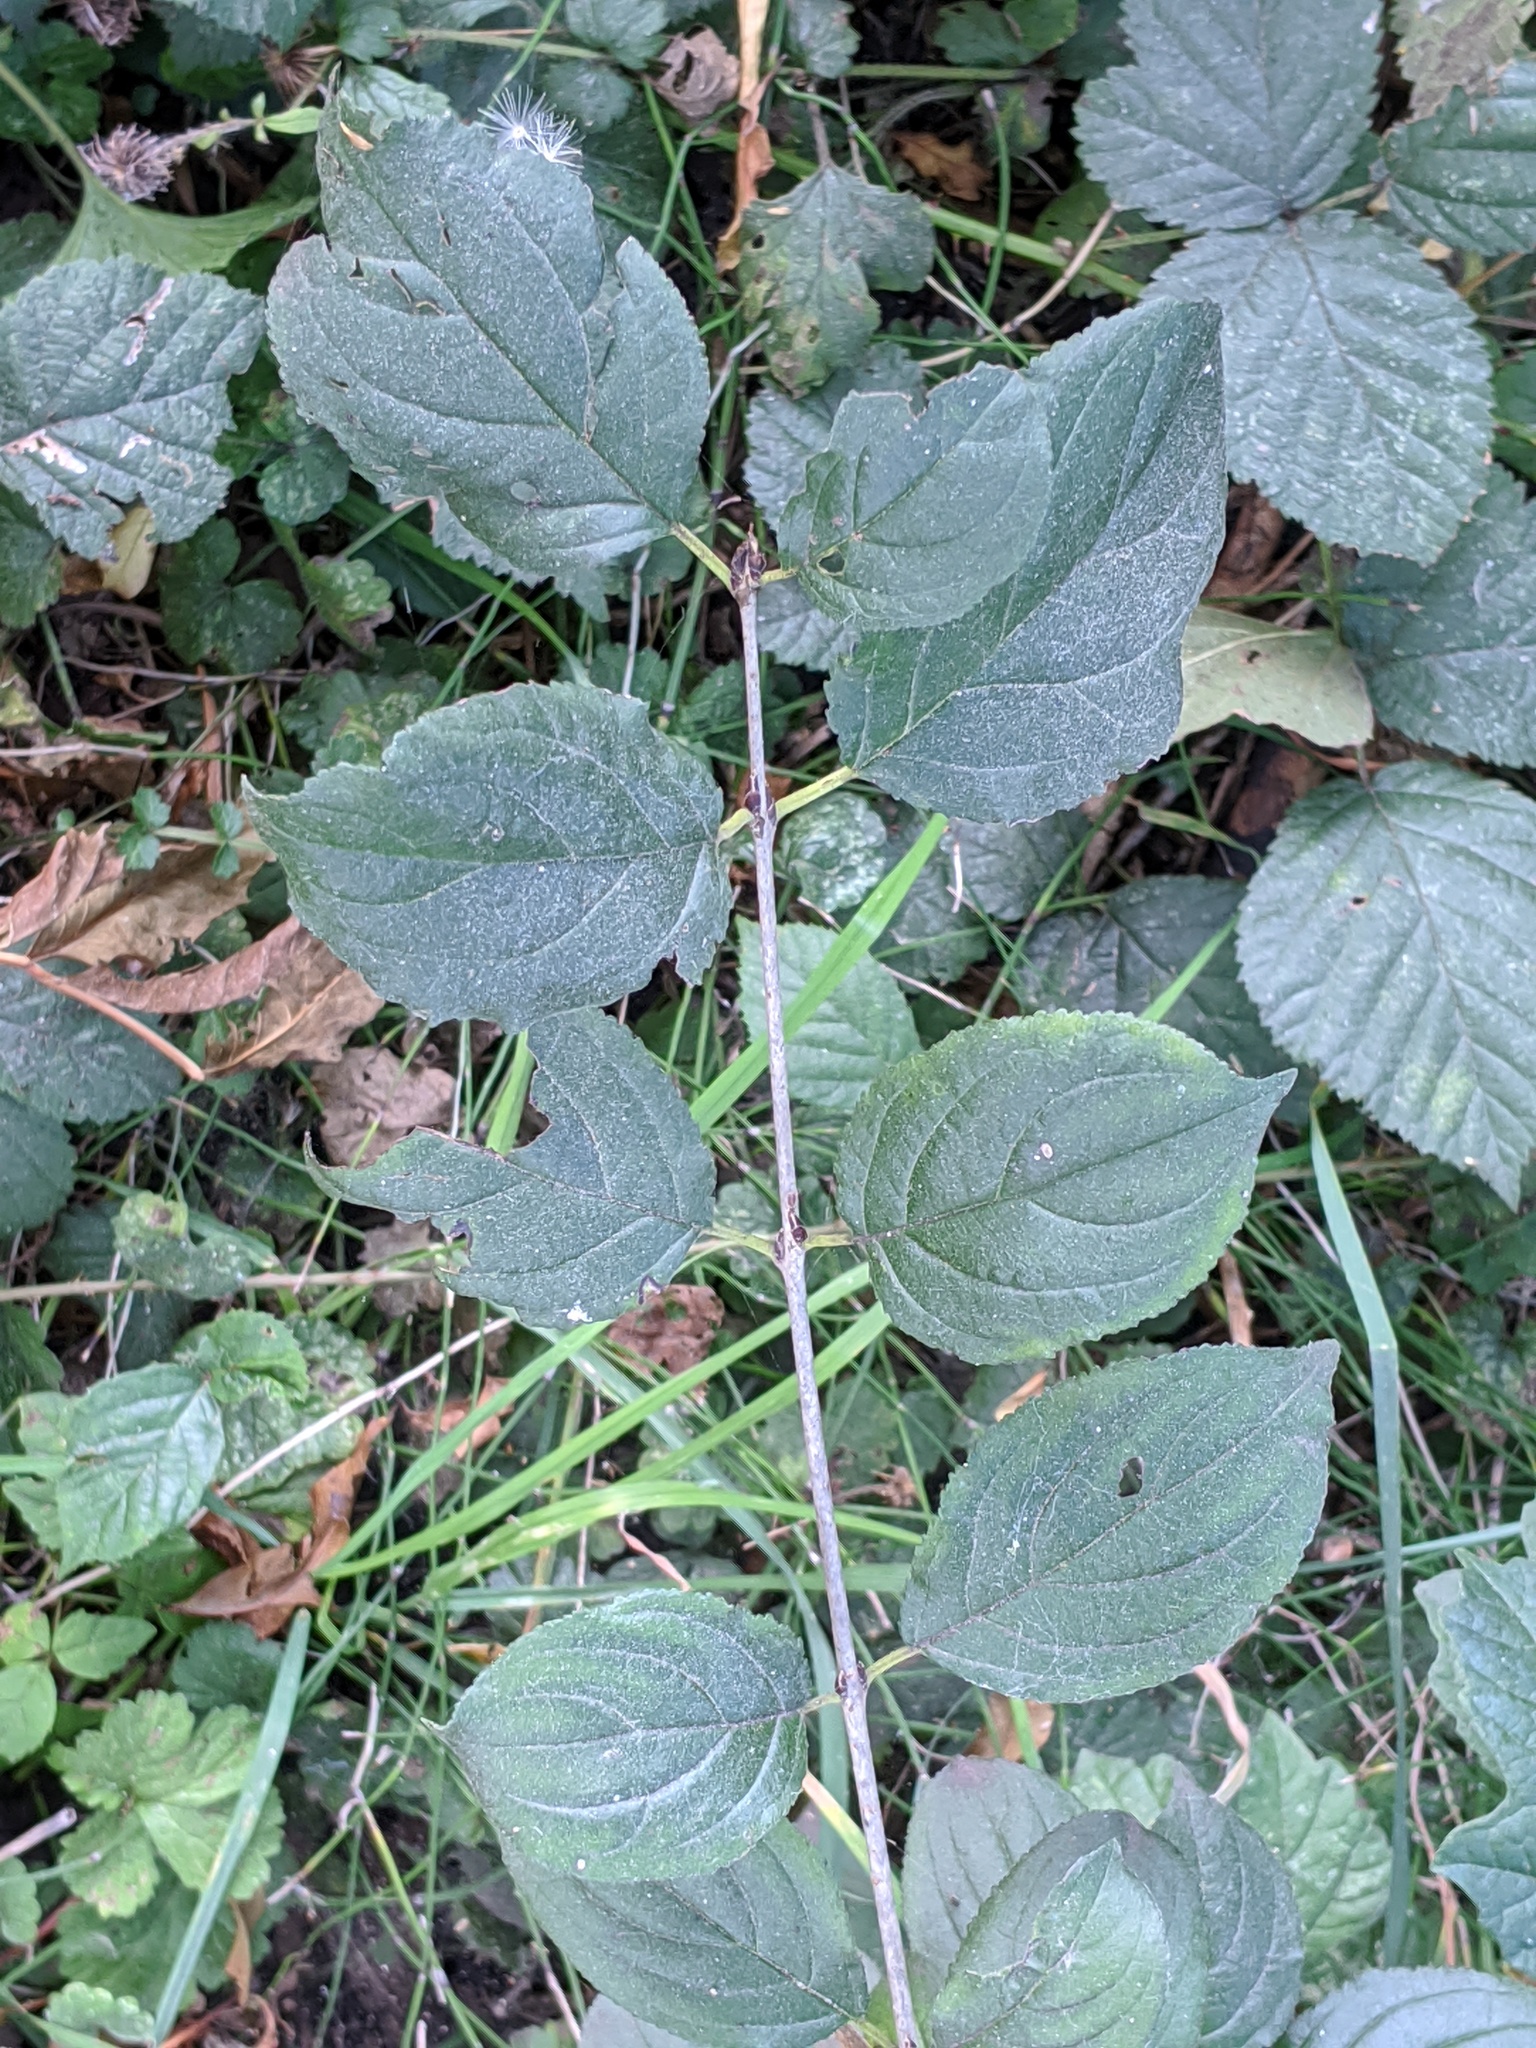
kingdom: Plantae
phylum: Tracheophyta
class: Magnoliopsida
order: Rosales
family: Rhamnaceae
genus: Rhamnus
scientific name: Rhamnus cathartica
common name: Common buckthorn
